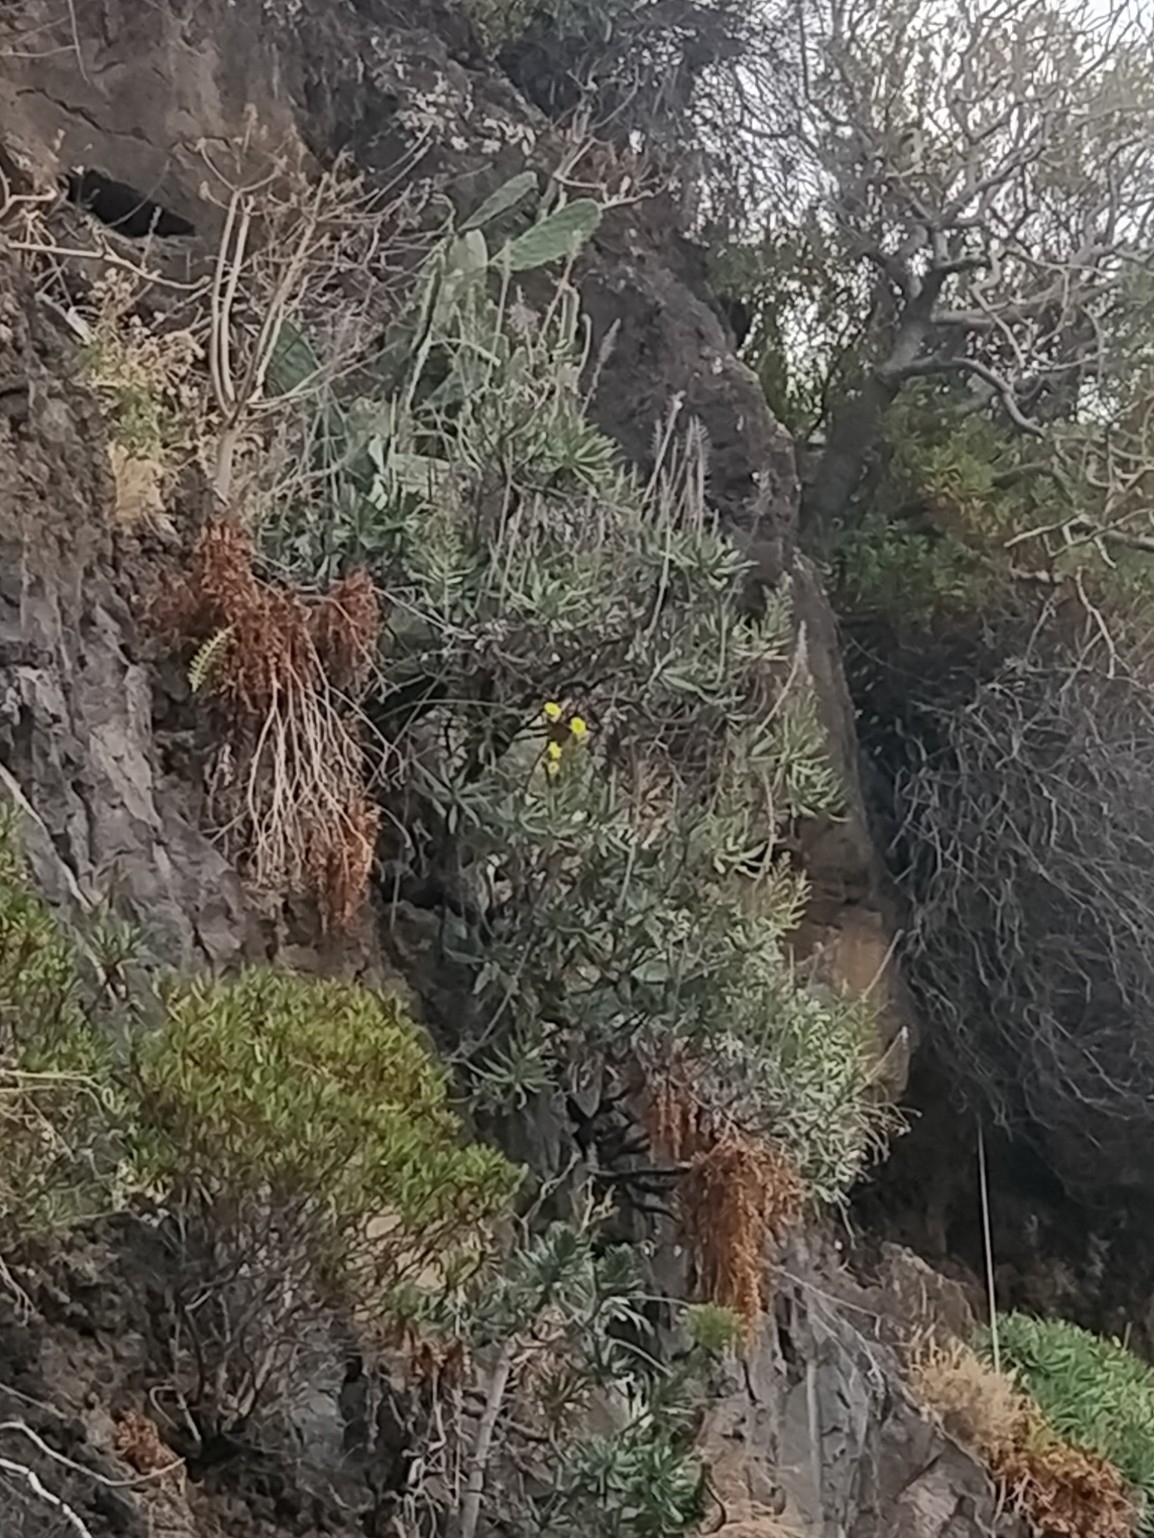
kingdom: Plantae
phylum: Tracheophyta
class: Magnoliopsida
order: Boraginales
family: Boraginaceae
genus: Echium
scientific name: Echium nervosum
